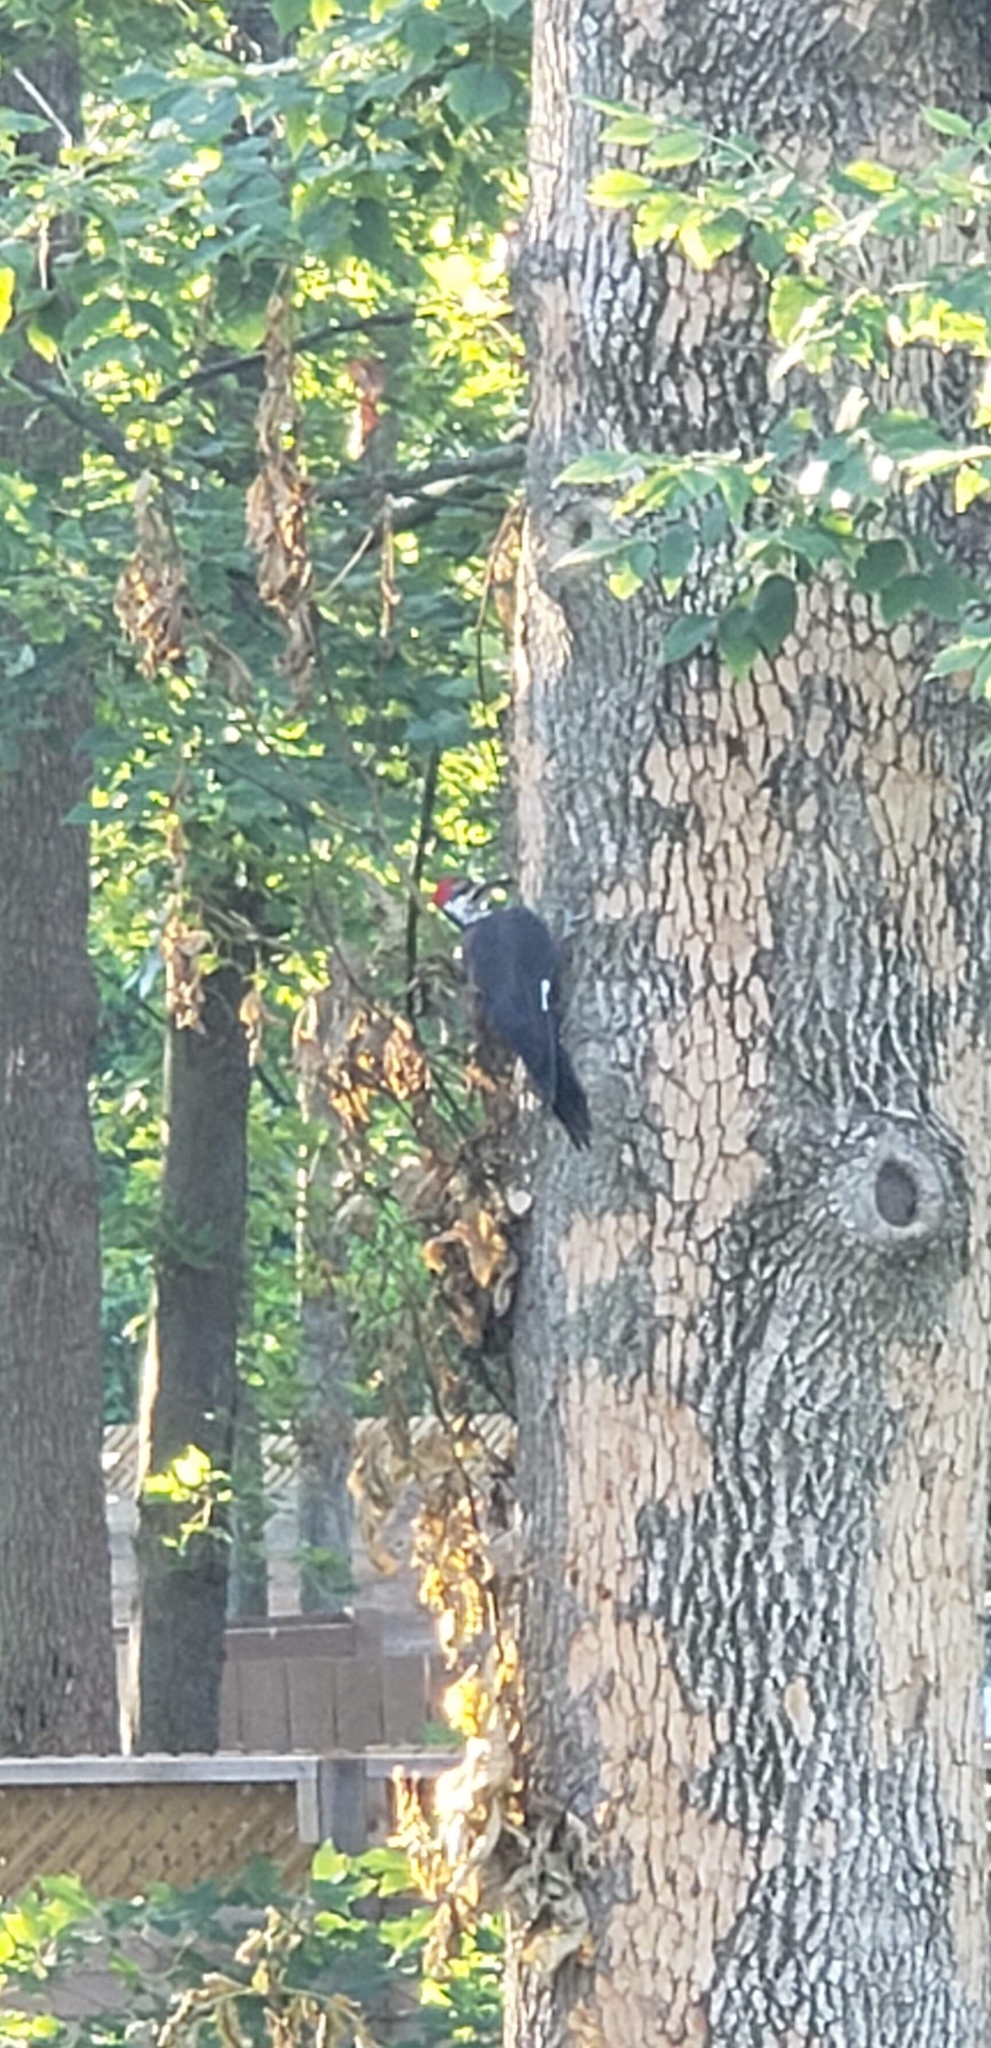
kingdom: Animalia
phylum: Chordata
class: Aves
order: Piciformes
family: Picidae
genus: Dryocopus
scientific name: Dryocopus pileatus
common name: Pileated woodpecker
